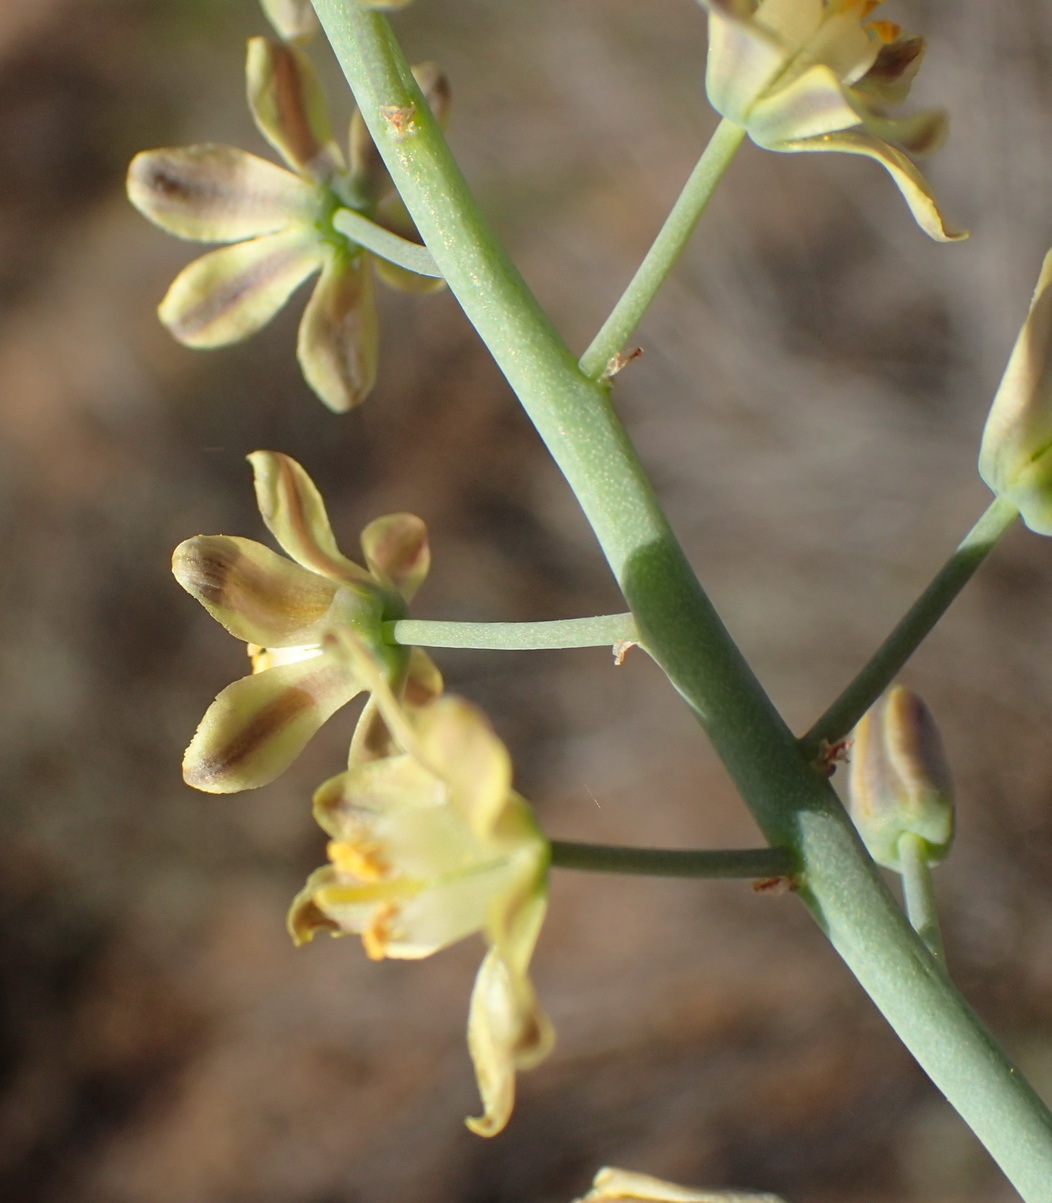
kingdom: Plantae
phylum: Tracheophyta
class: Liliopsida
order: Asparagales
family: Asparagaceae
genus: Eriospermum
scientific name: Eriospermum zeyheri
